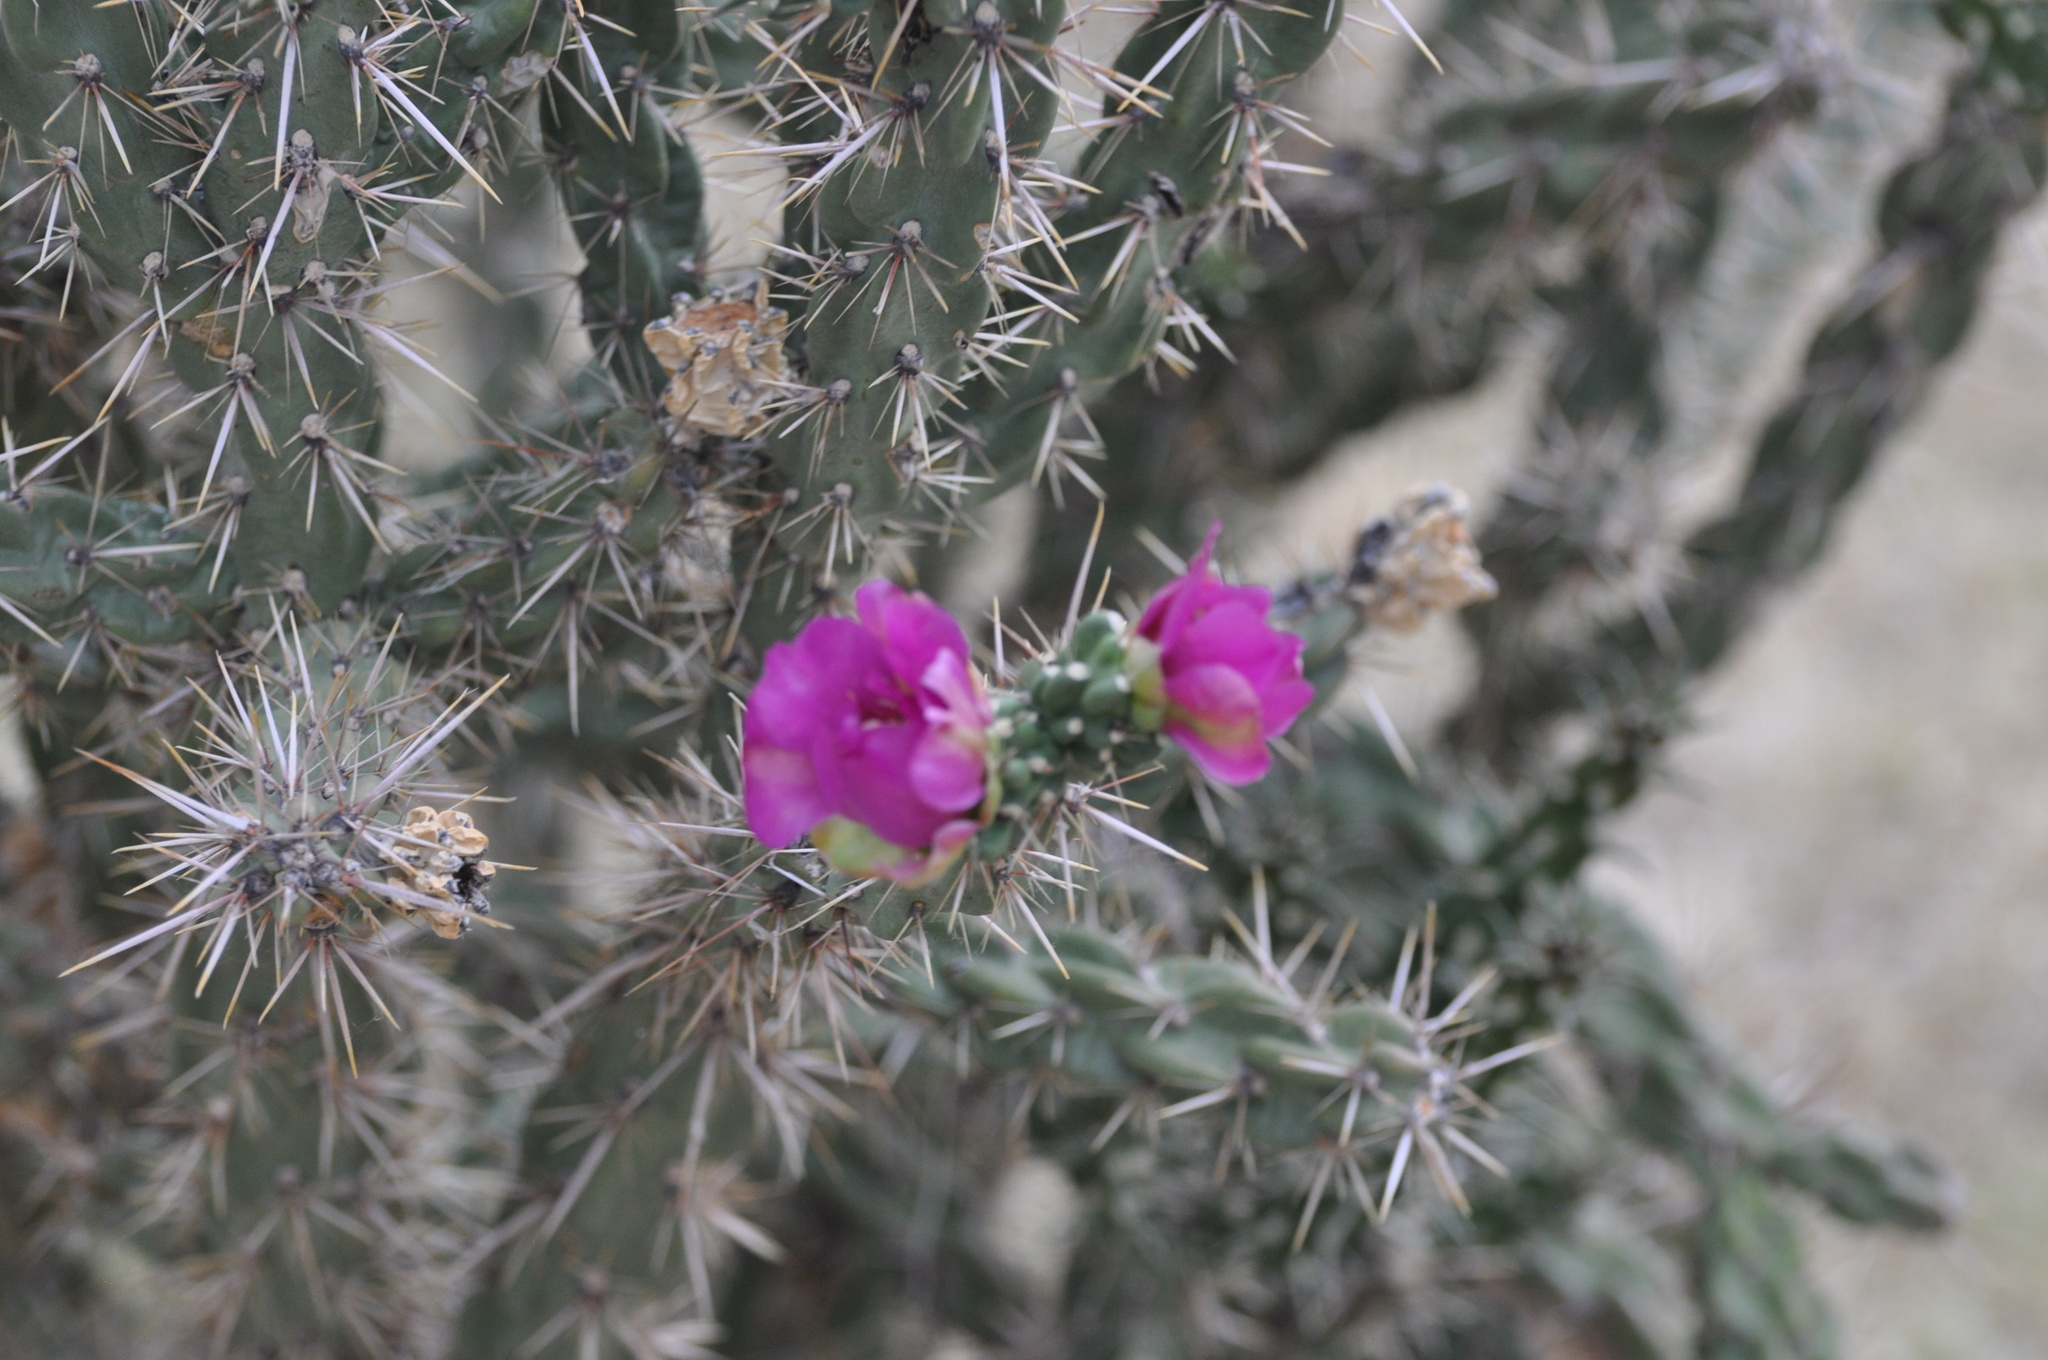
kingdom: Plantae
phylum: Tracheophyta
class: Magnoliopsida
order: Caryophyllales
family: Cactaceae
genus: Cylindropuntia
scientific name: Cylindropuntia imbricata
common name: Candelabrum cactus
